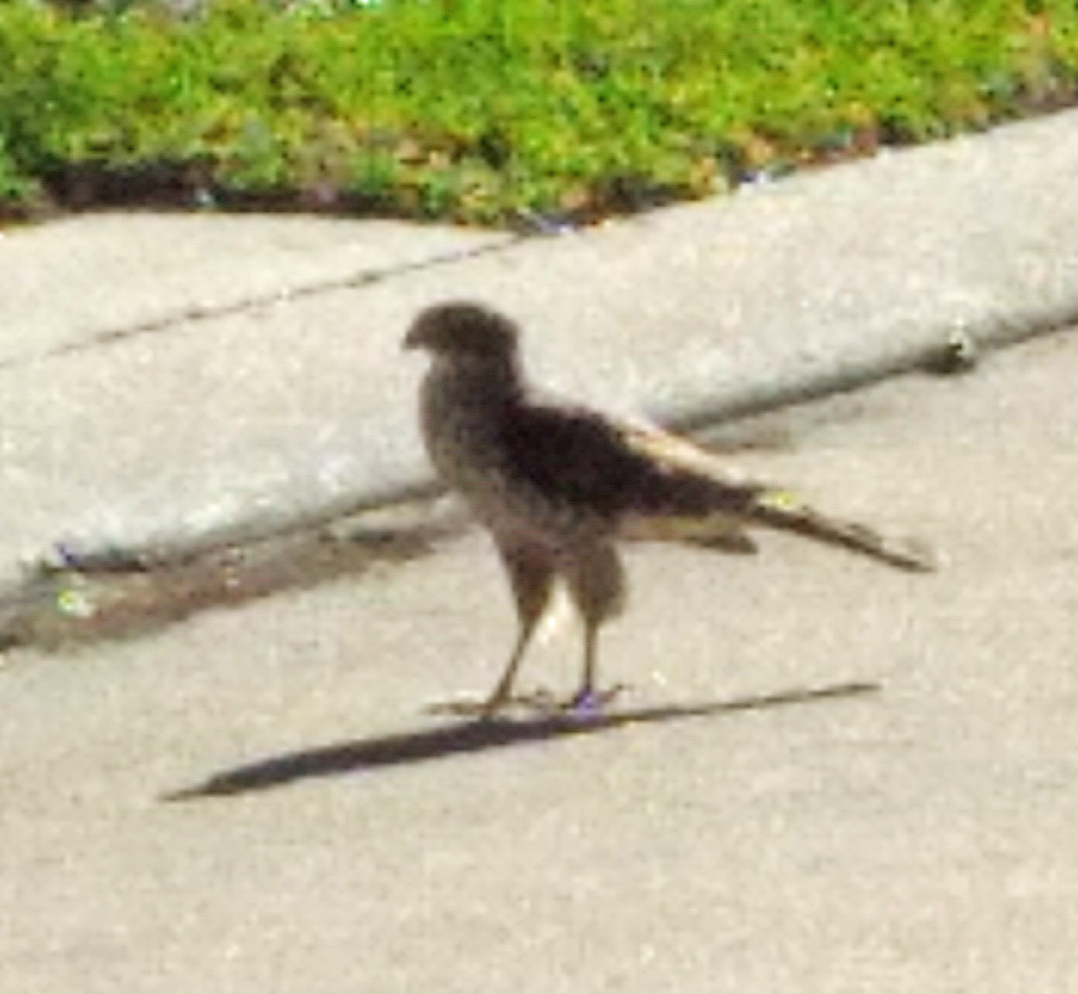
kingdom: Animalia
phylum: Chordata
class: Aves
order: Accipitriformes
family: Accipitridae
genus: Accipiter
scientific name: Accipiter cooperii
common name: Cooper's hawk
